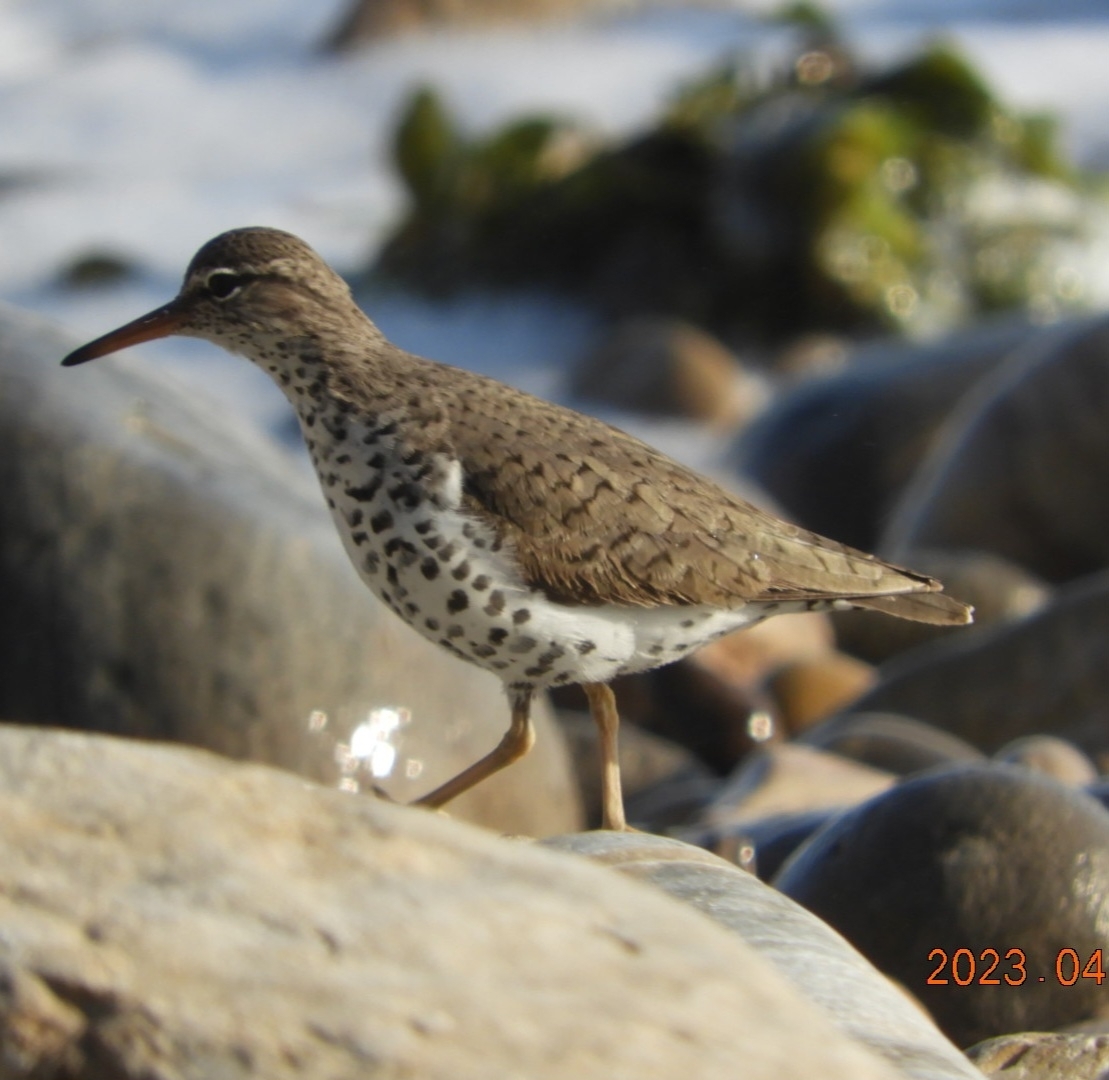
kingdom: Animalia
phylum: Chordata
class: Aves
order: Charadriiformes
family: Scolopacidae
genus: Actitis
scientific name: Actitis macularius
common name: Spotted sandpiper
